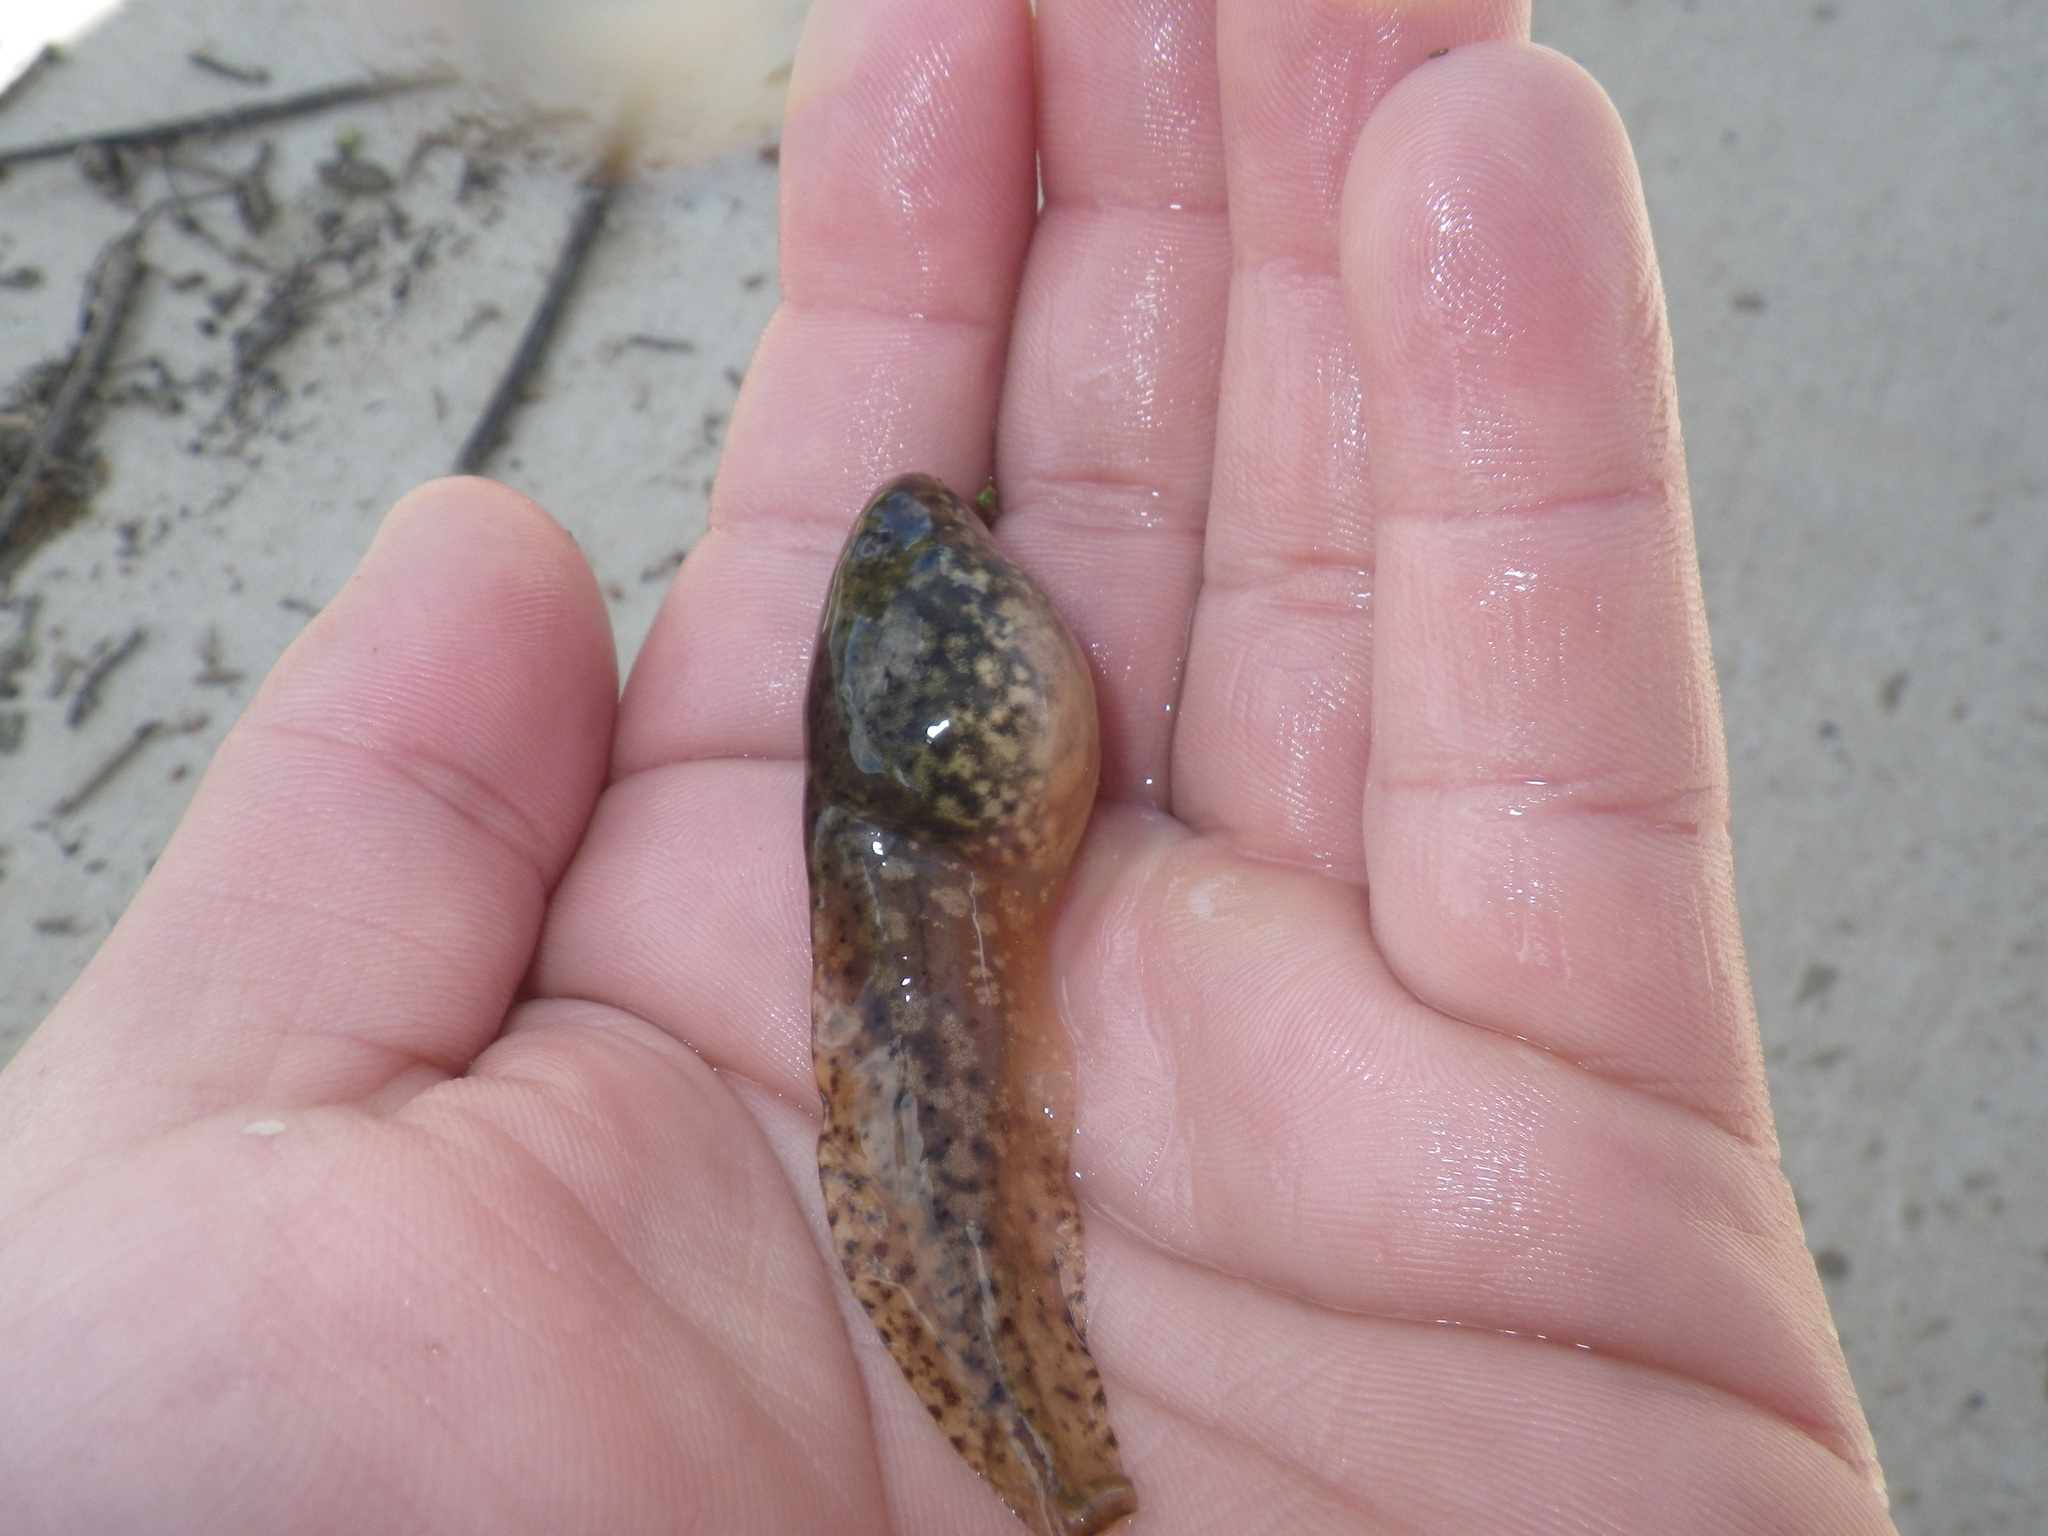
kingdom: Animalia
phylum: Chordata
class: Amphibia
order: Anura
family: Ranidae
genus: Lithobates
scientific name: Lithobates catesbeianus
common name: American bullfrog
